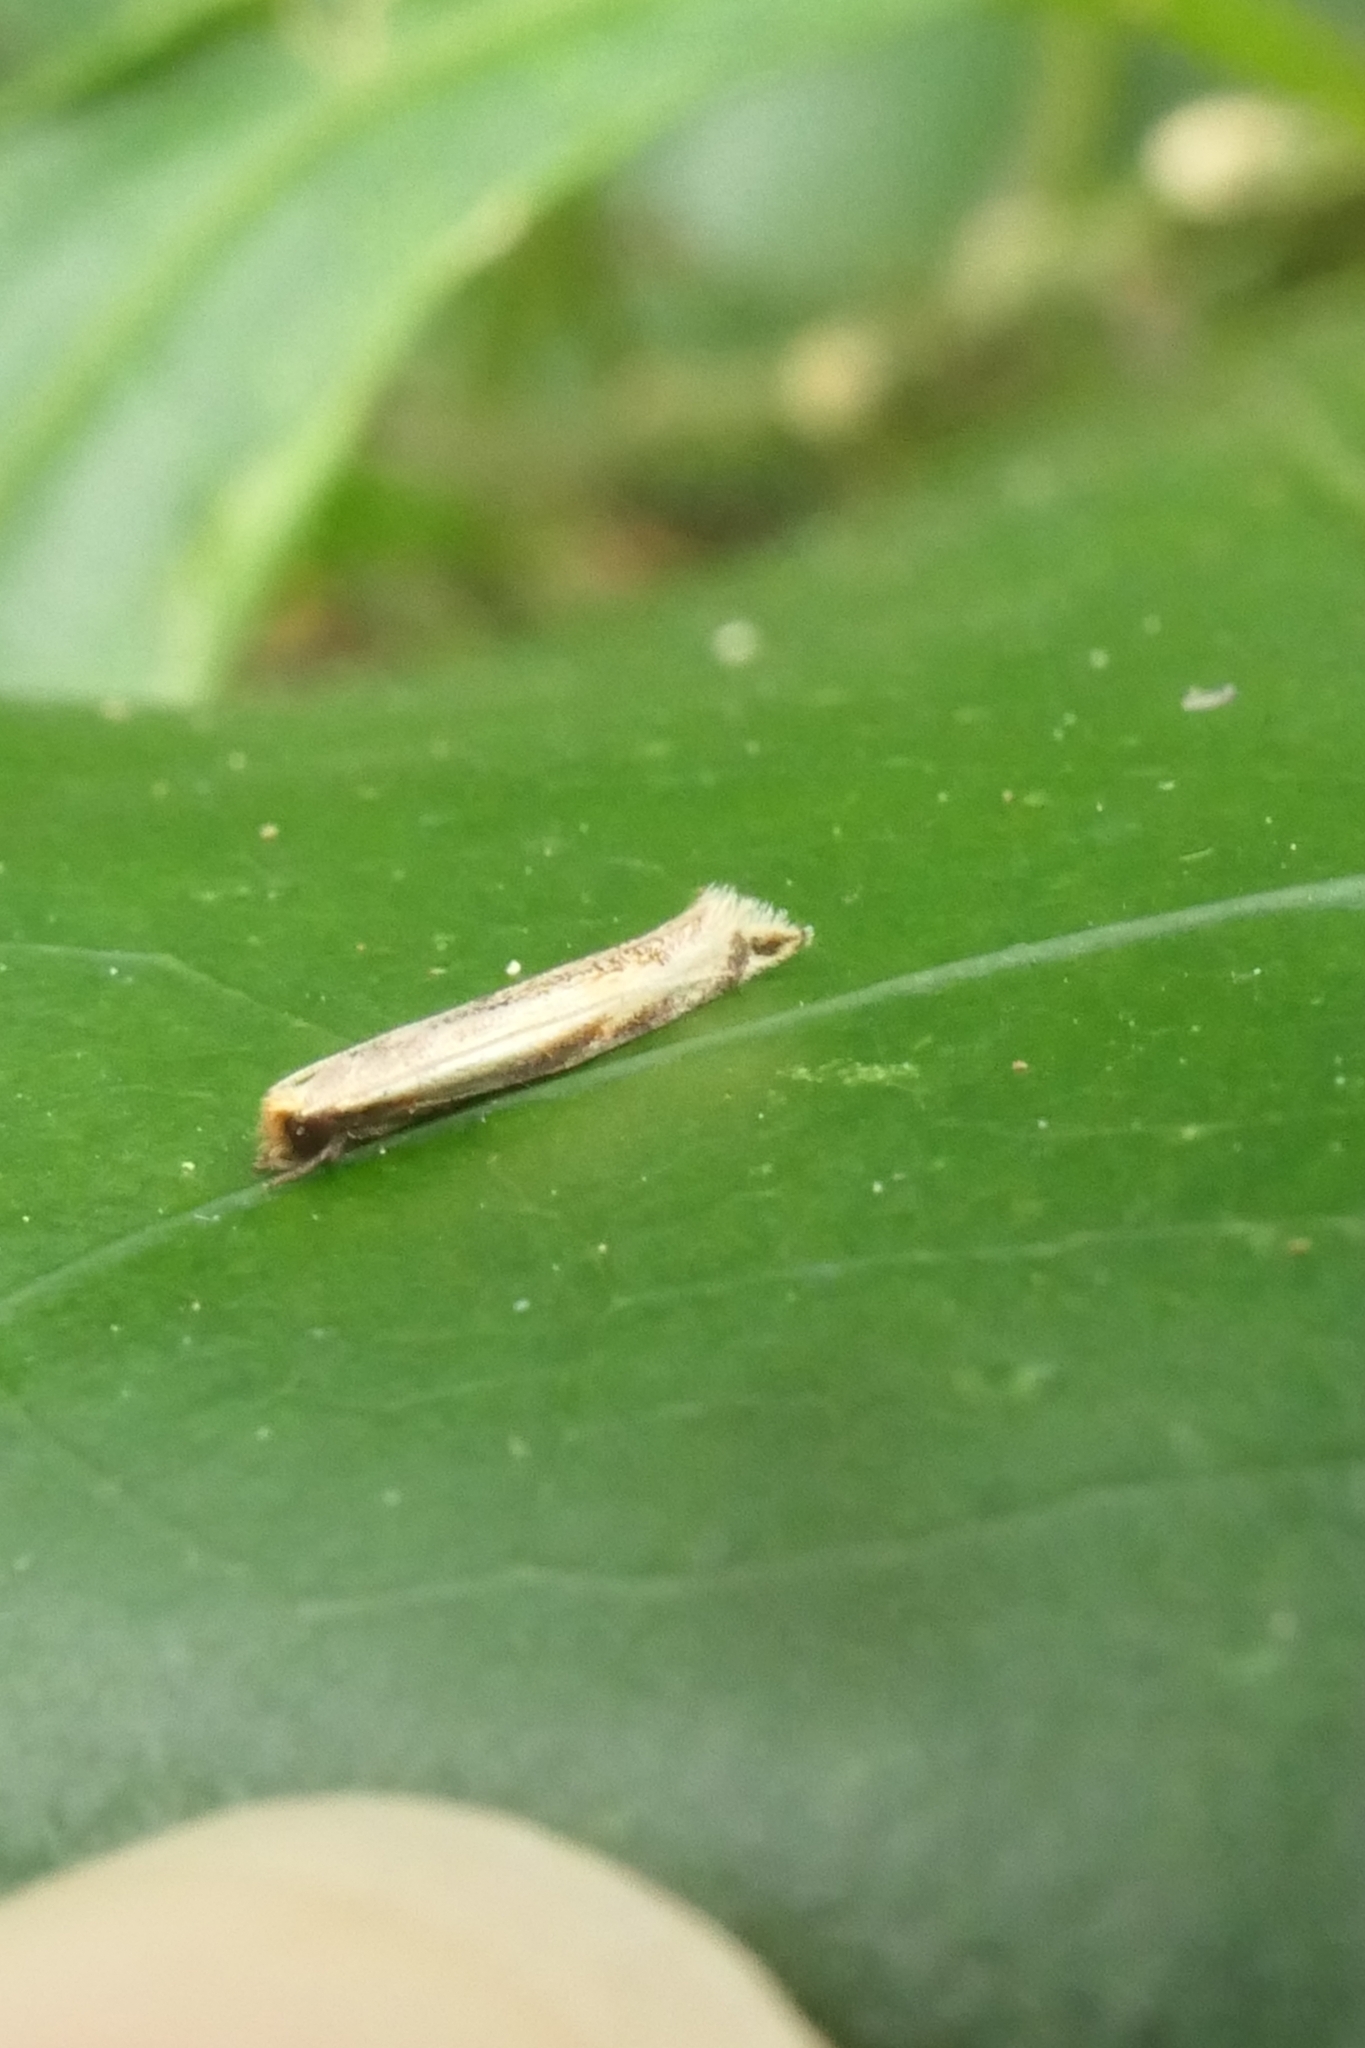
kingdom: Animalia
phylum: Arthropoda
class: Insecta
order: Lepidoptera
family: Tineidae
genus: Erechthias
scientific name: Erechthias charadrota
